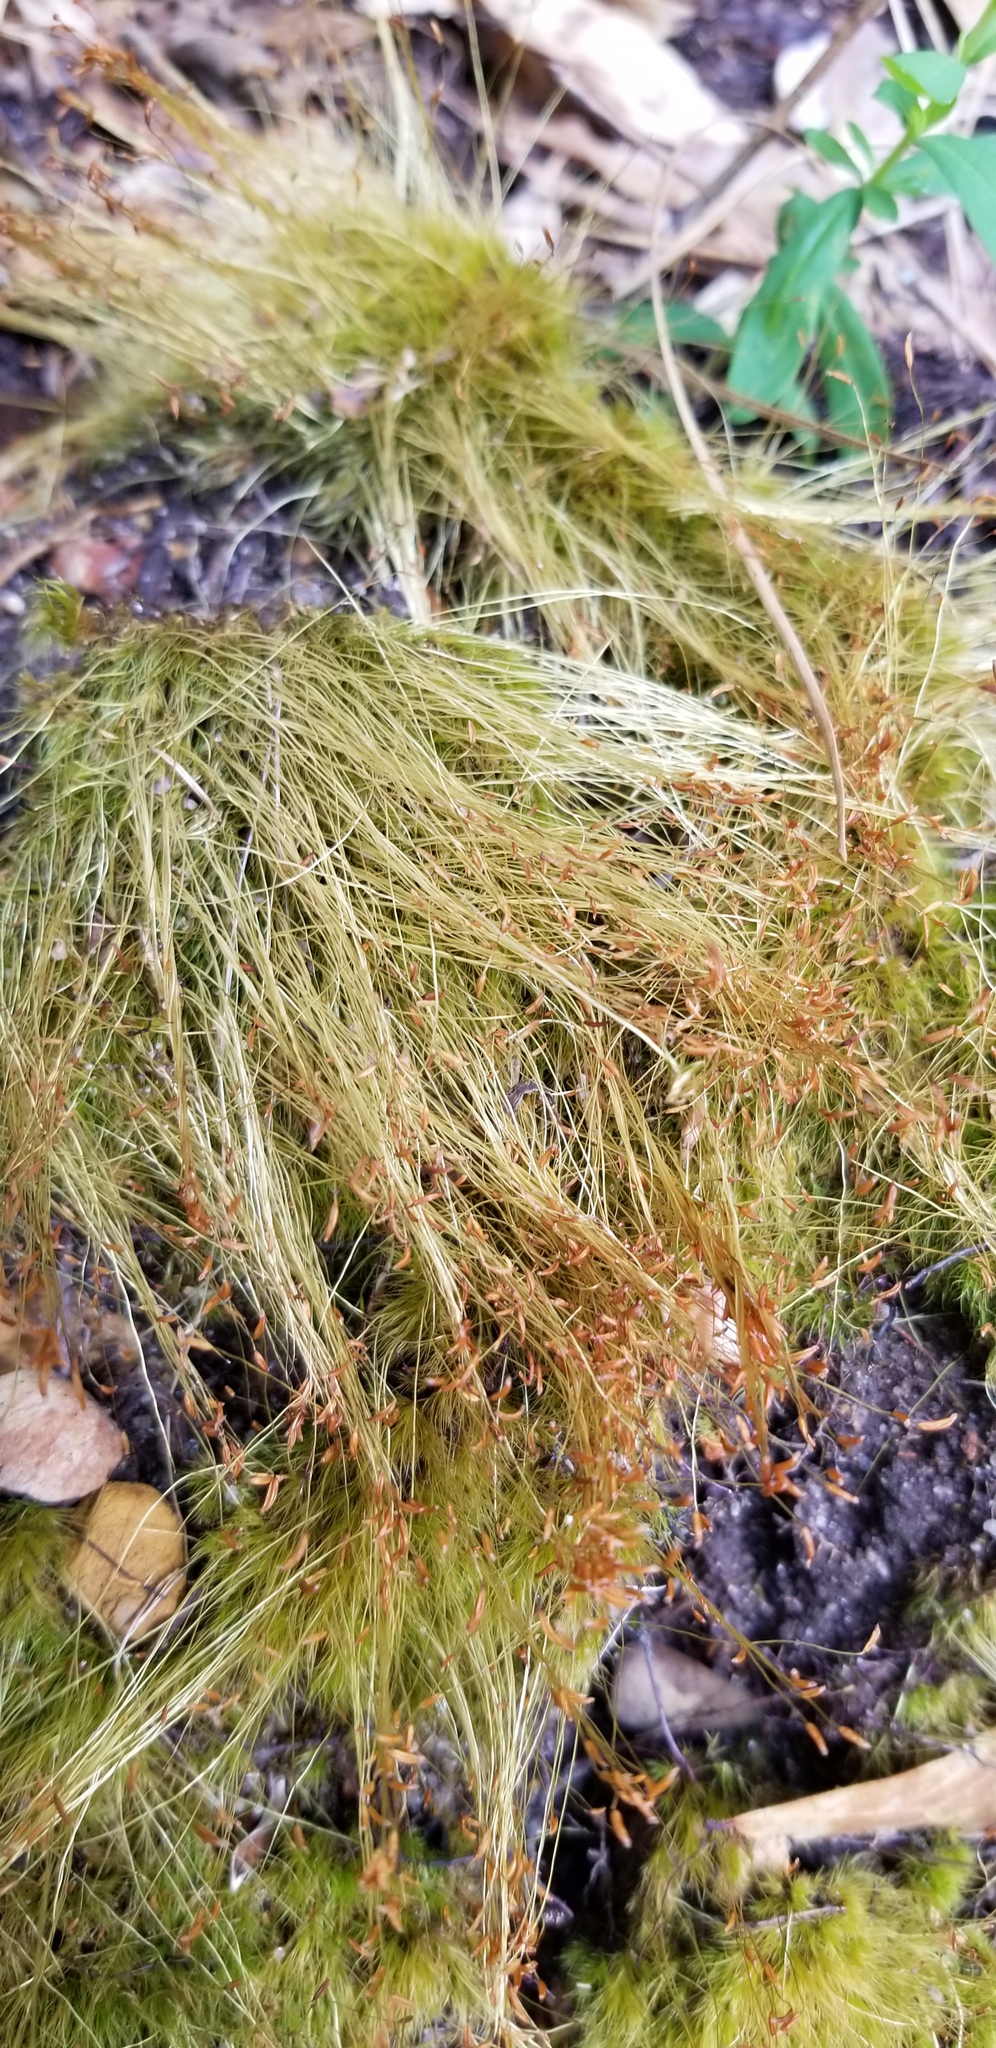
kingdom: Plantae
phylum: Bryophyta
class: Bryopsida
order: Dicranales
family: Ditrichaceae
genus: Ditrichum
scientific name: Ditrichum pallidum
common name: Pale cow-hair moss
